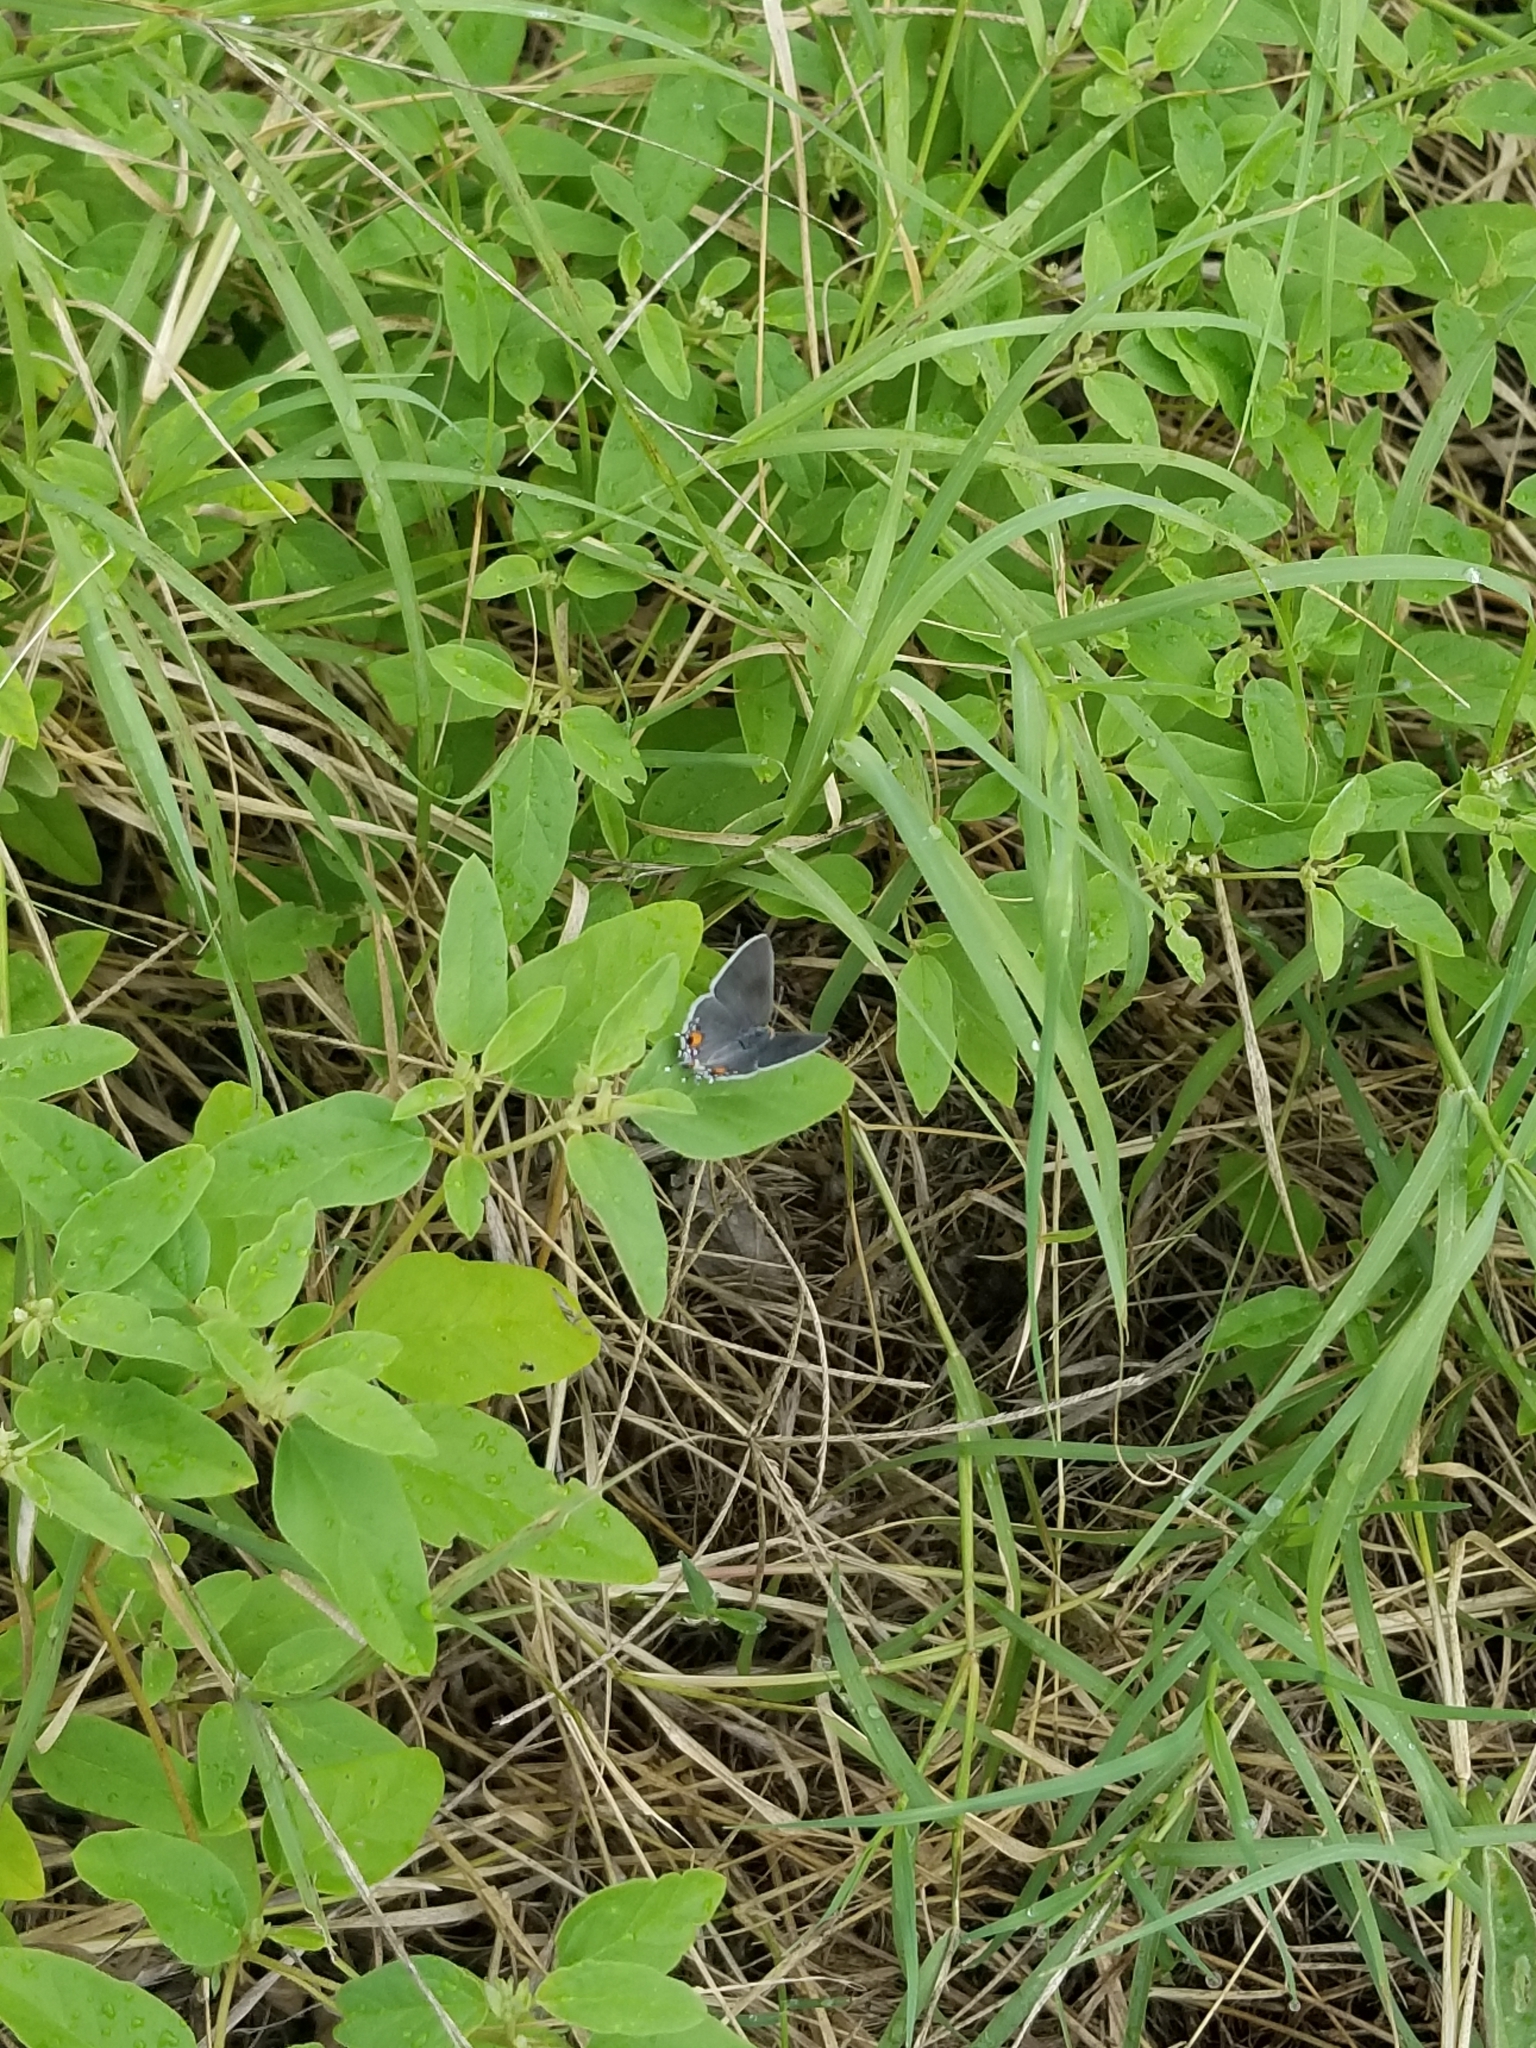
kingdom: Animalia
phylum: Arthropoda
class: Insecta
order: Lepidoptera
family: Lycaenidae
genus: Strymon
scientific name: Strymon melinus
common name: Gray hairstreak
